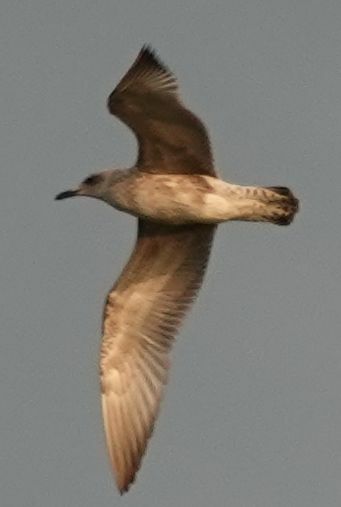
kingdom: Animalia
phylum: Chordata
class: Aves
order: Charadriiformes
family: Laridae
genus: Larus
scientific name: Larus cachinnans
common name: Caspian gull
